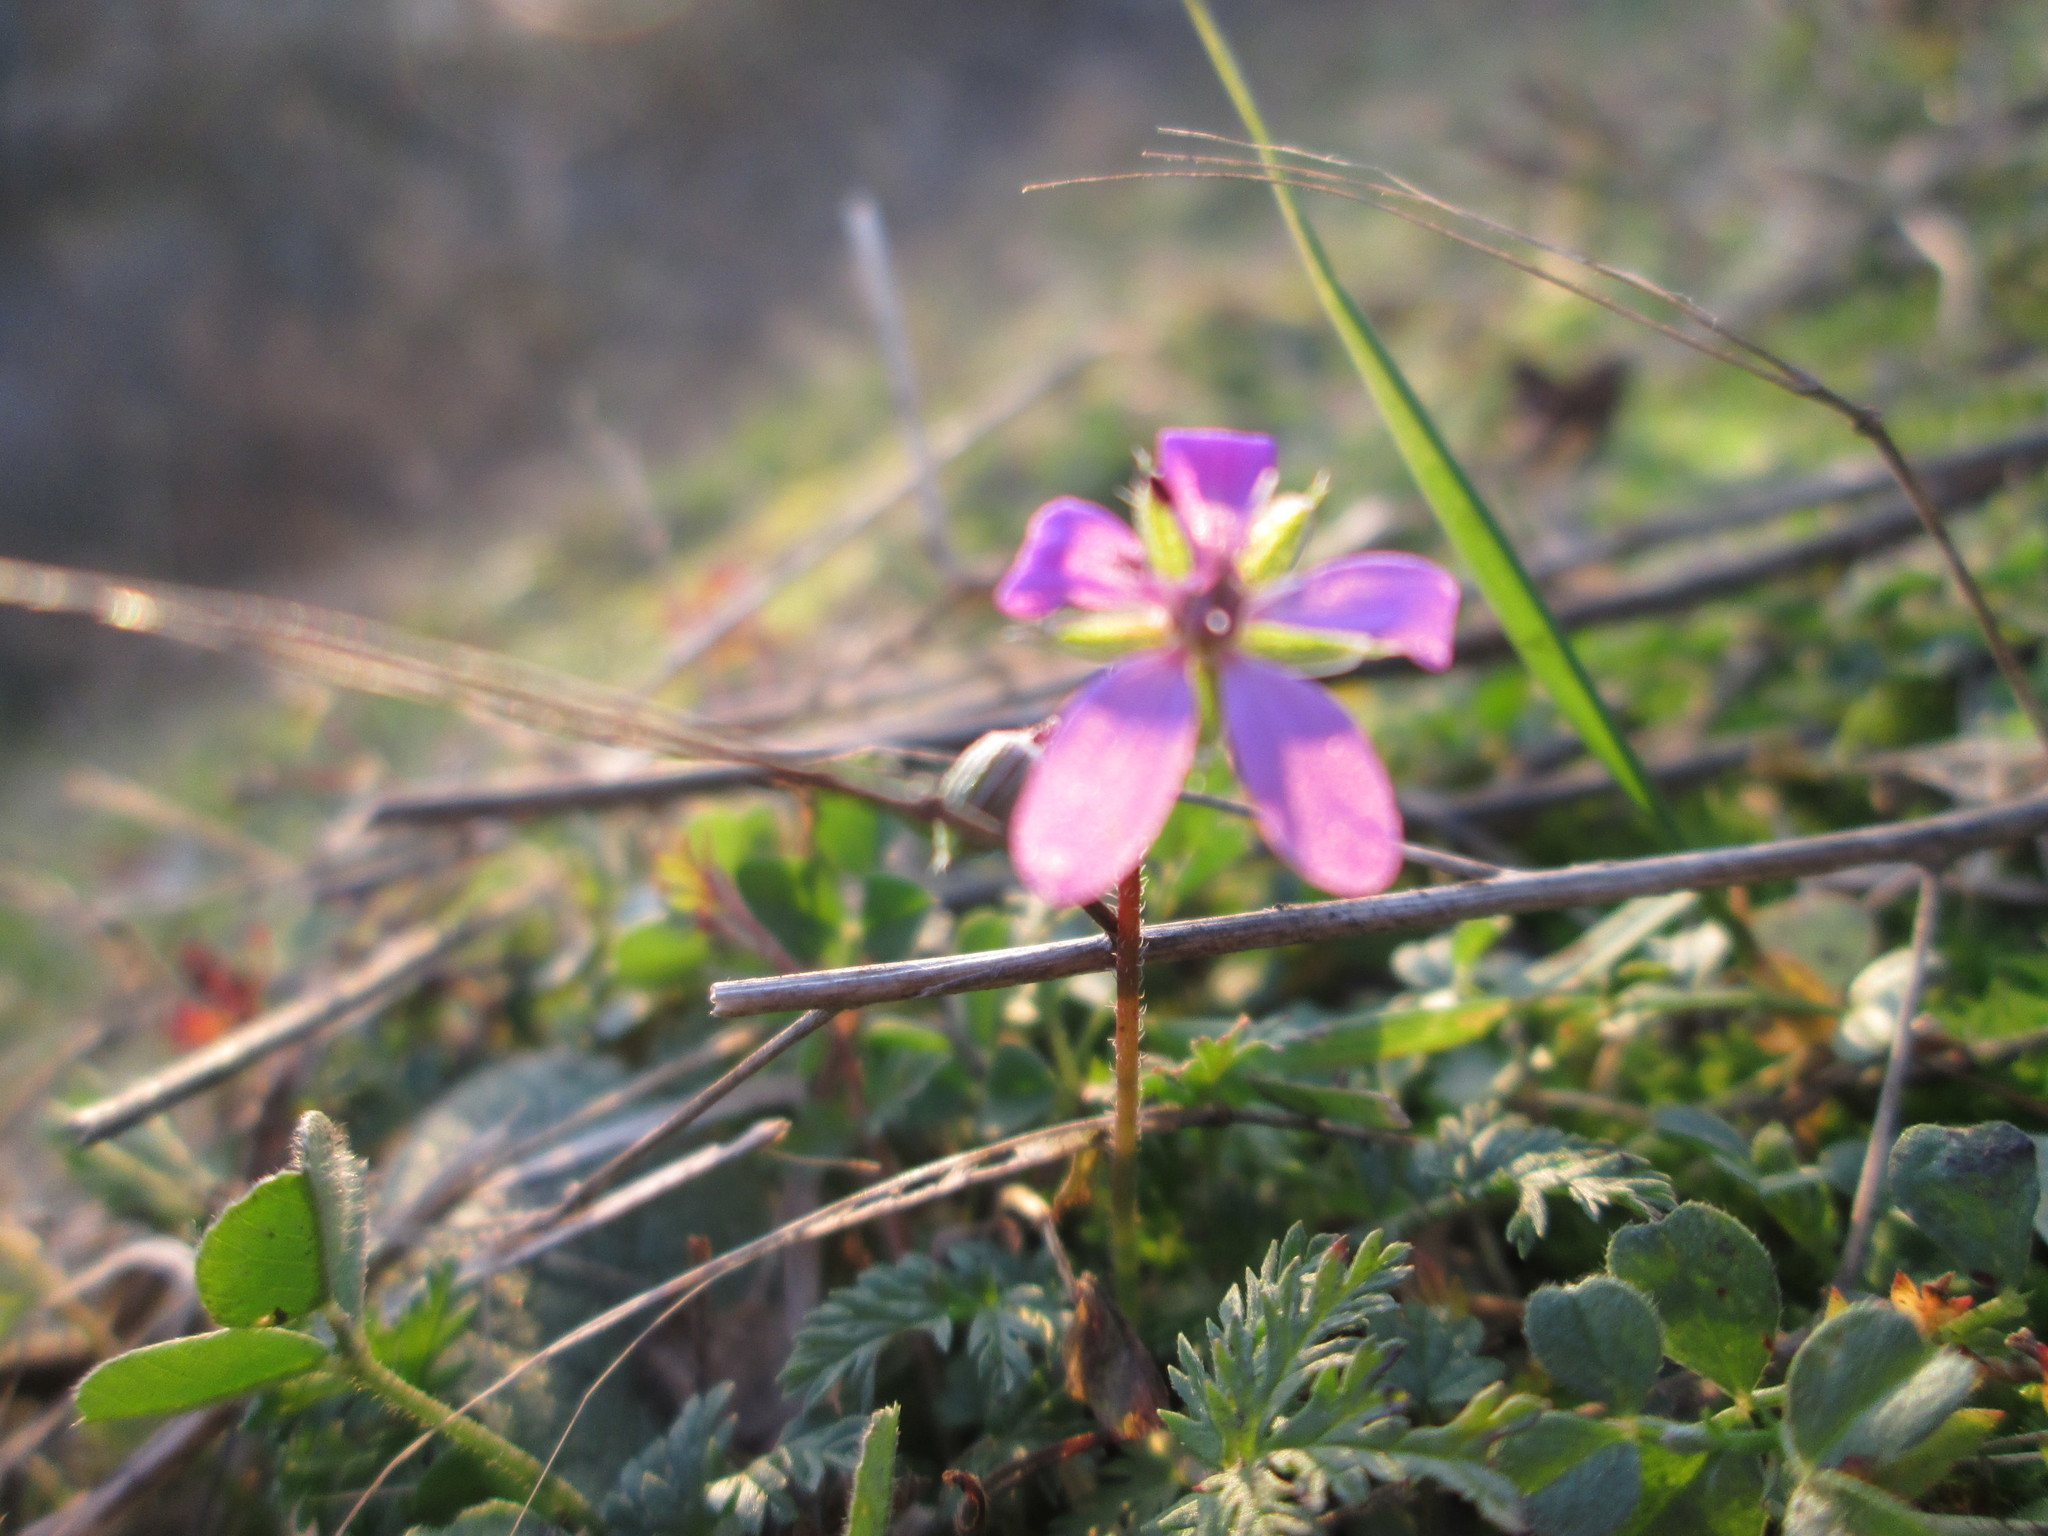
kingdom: Plantae
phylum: Tracheophyta
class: Magnoliopsida
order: Geraniales
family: Geraniaceae
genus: Erodium
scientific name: Erodium cicutarium
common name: Common stork's-bill
